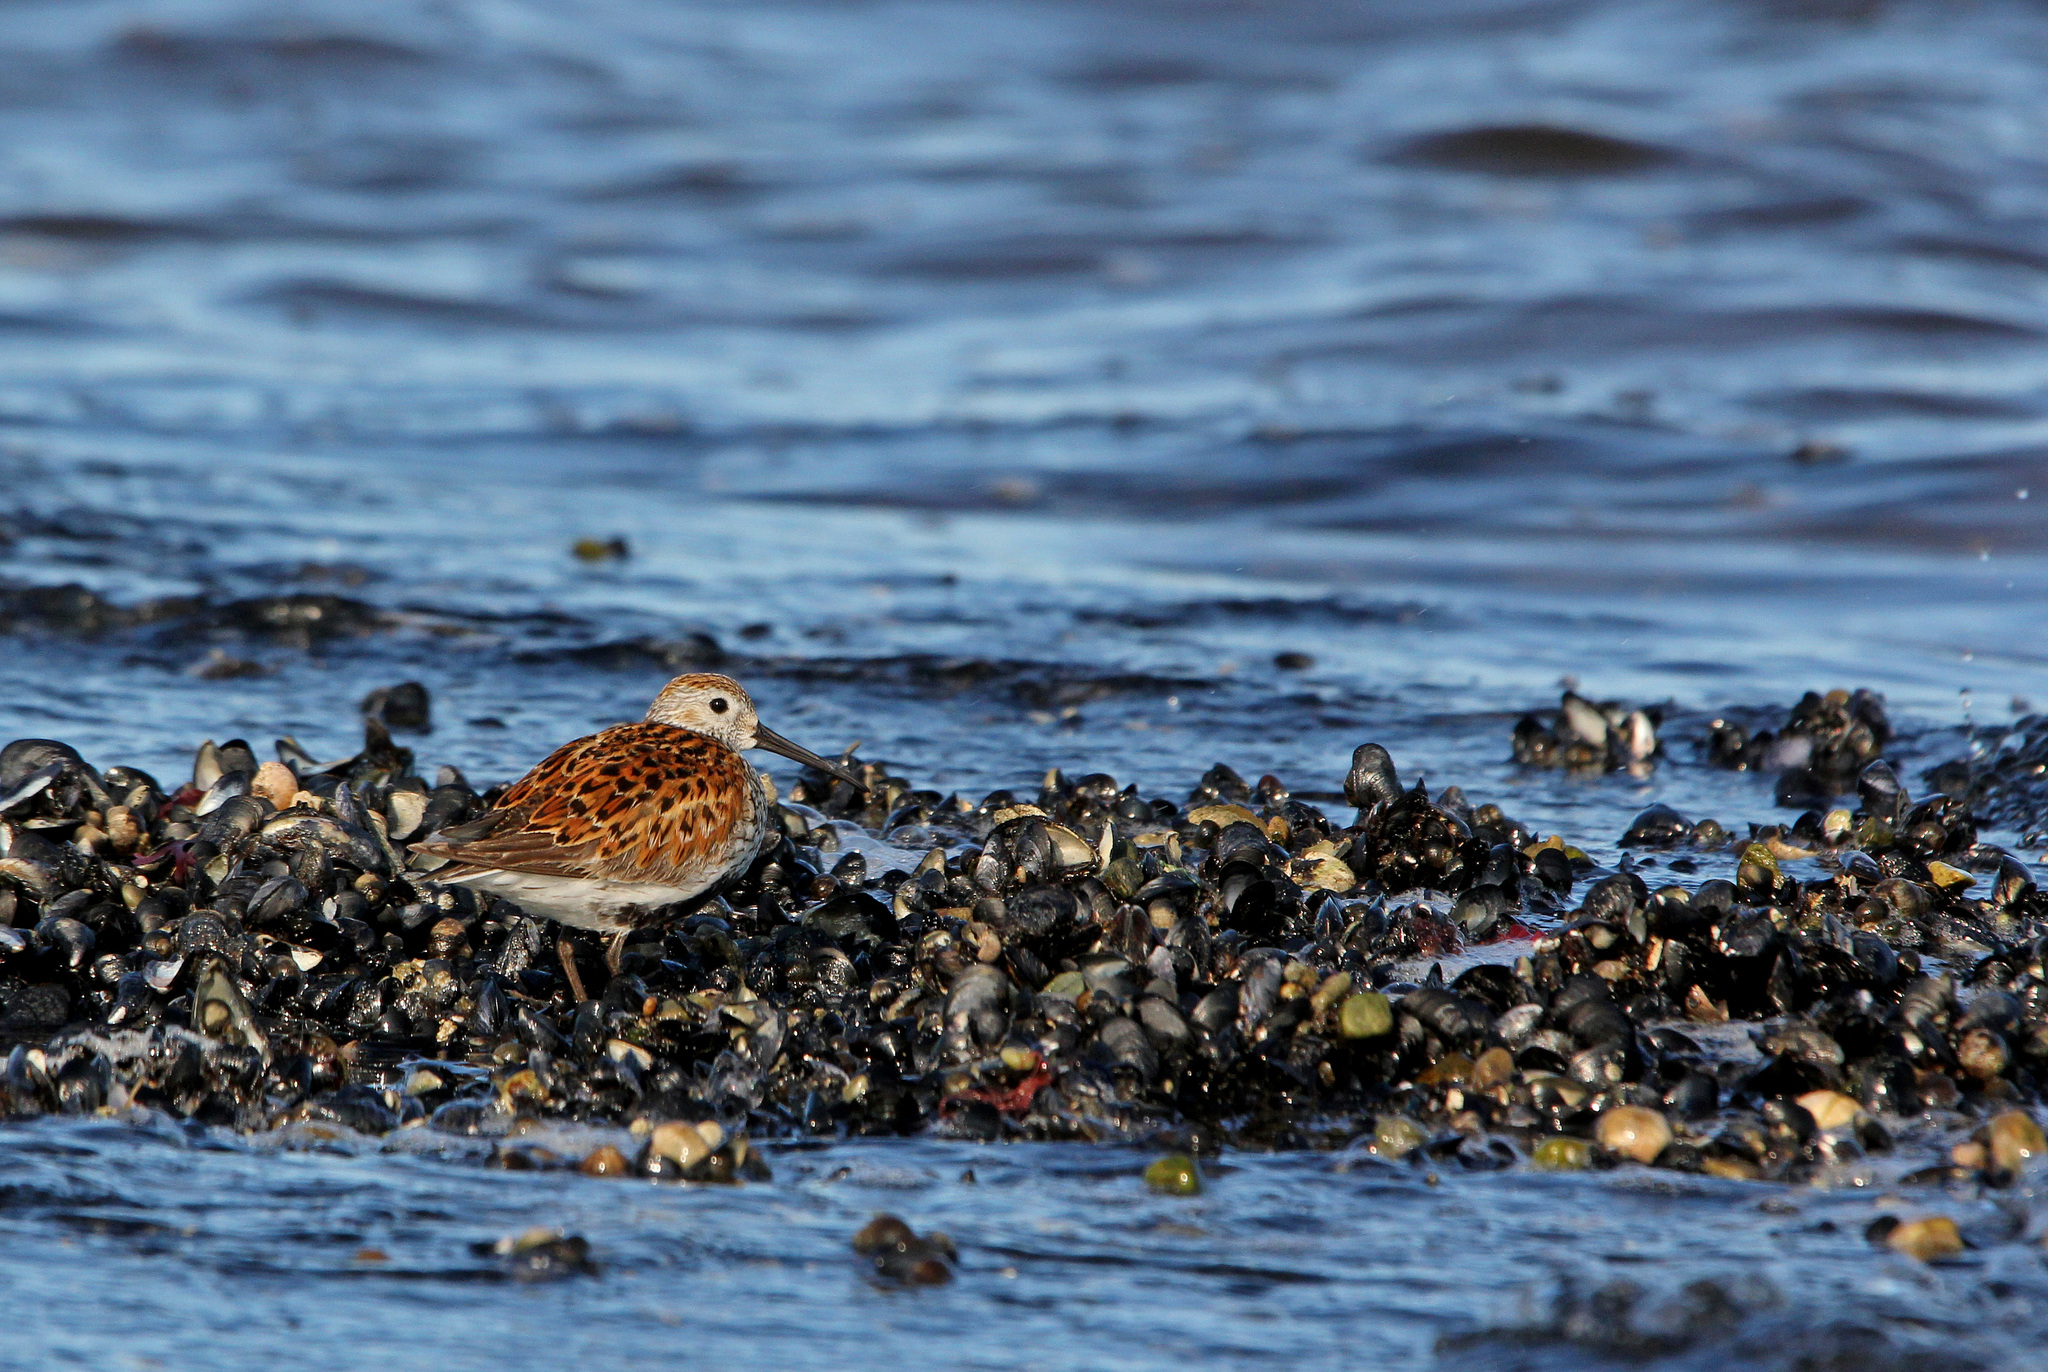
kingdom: Animalia
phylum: Chordata
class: Aves
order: Charadriiformes
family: Scolopacidae
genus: Calidris
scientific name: Calidris alpina
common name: Dunlin
